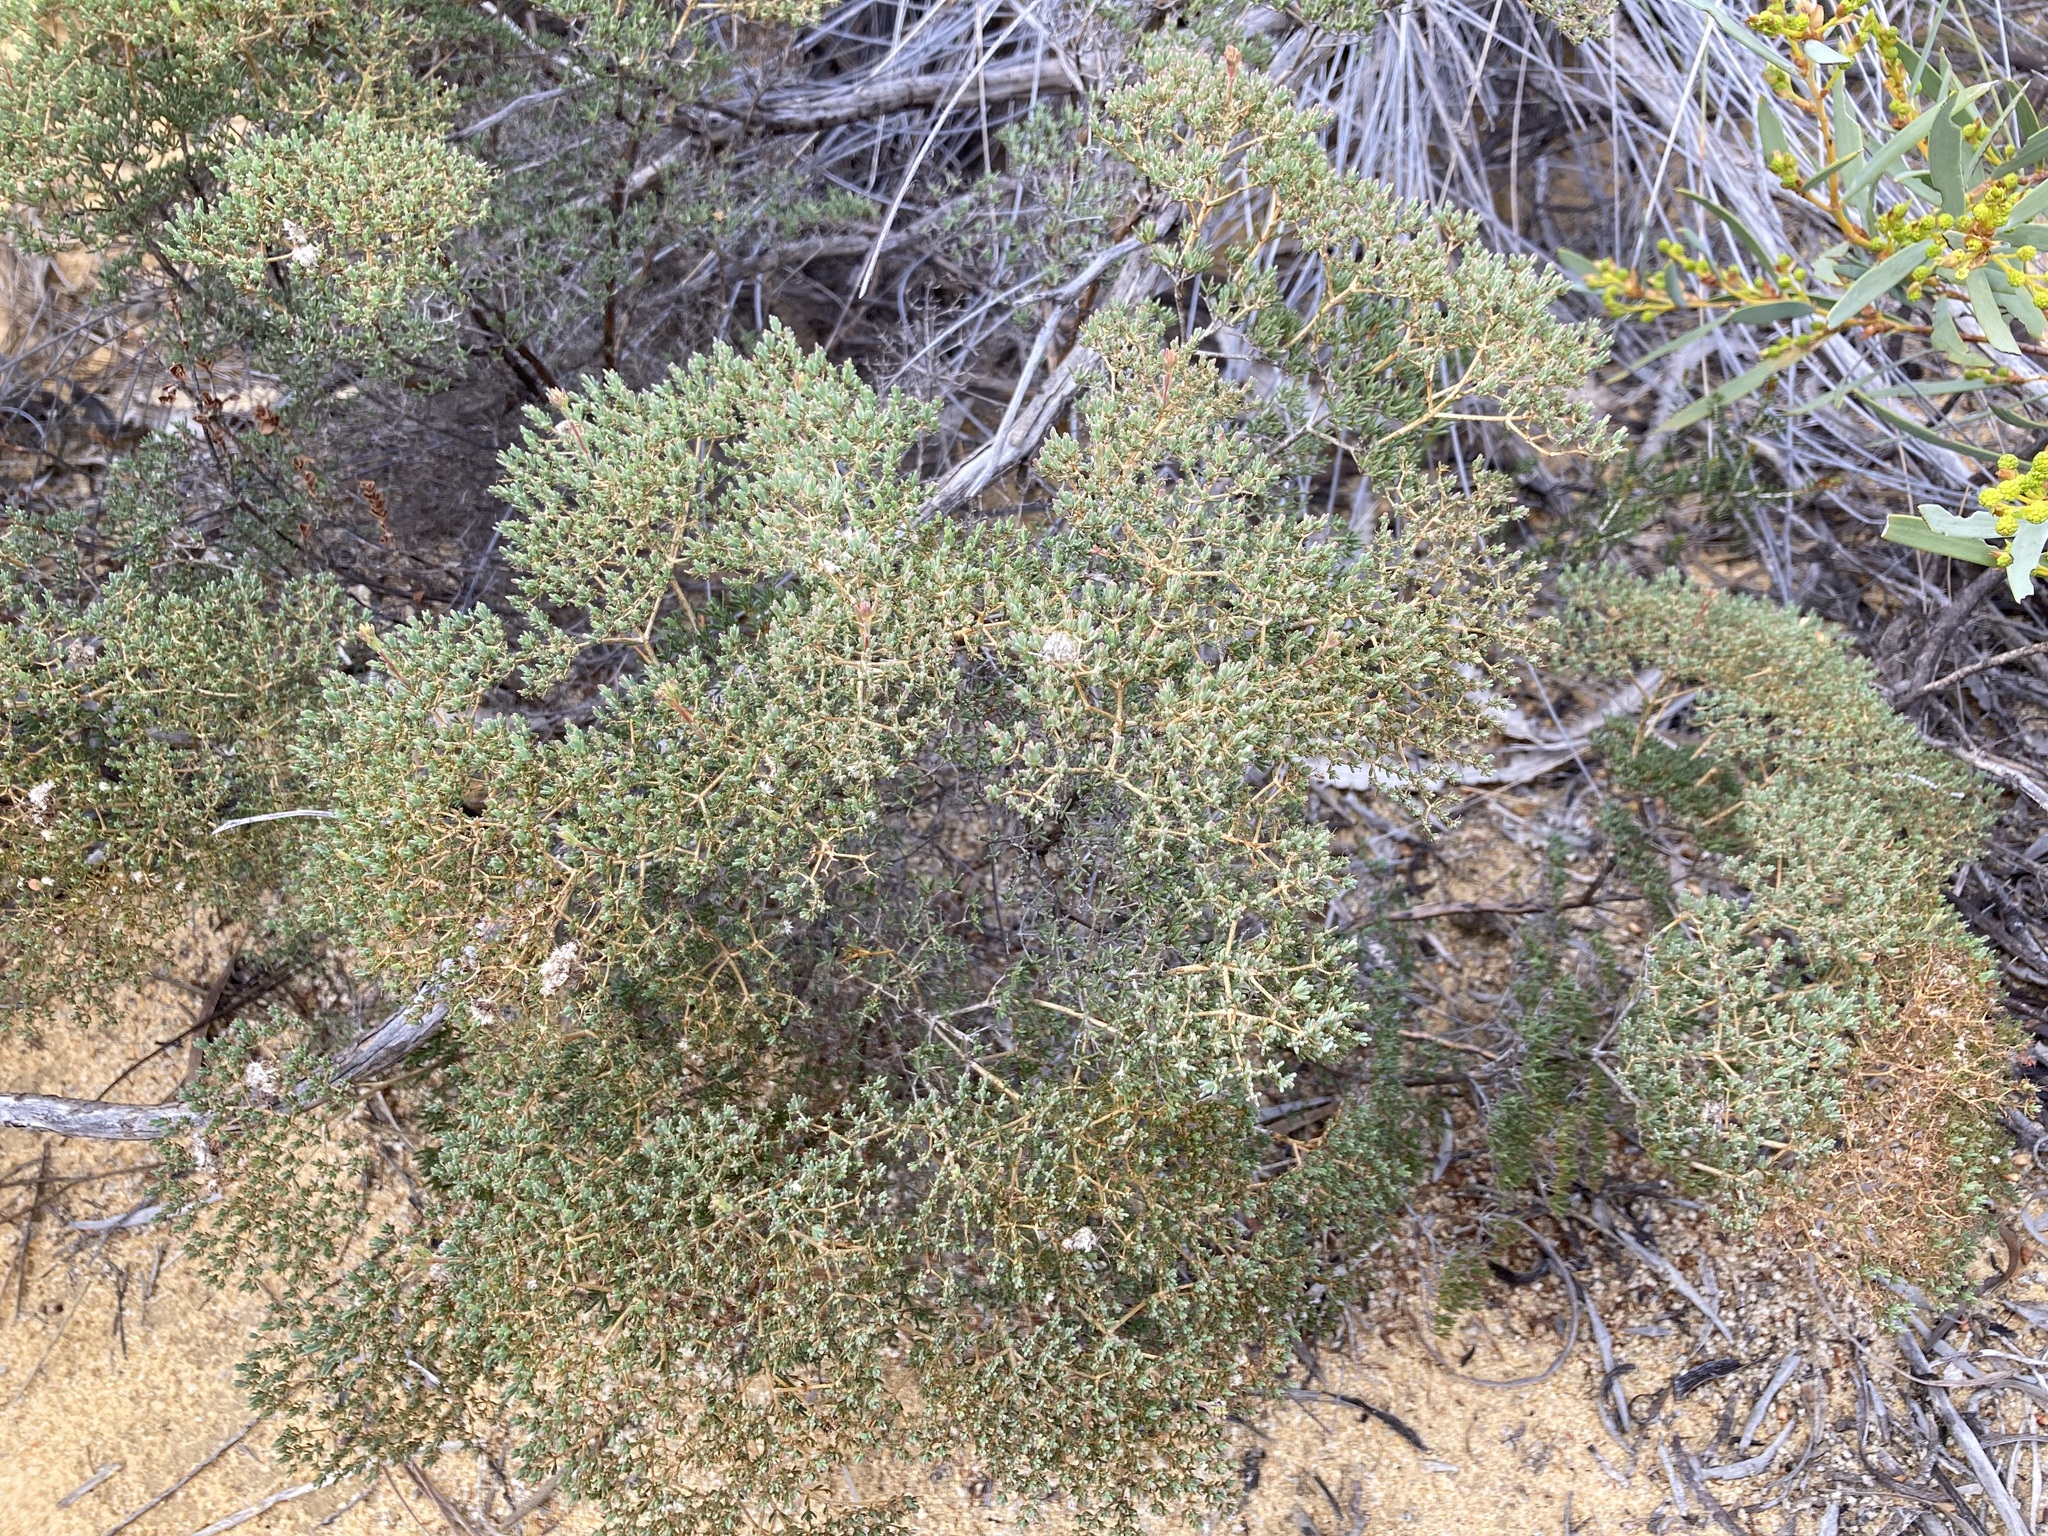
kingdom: Plantae
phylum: Tracheophyta
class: Magnoliopsida
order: Myrtales
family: Myrtaceae
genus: Verticordia
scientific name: Verticordia capillaris
